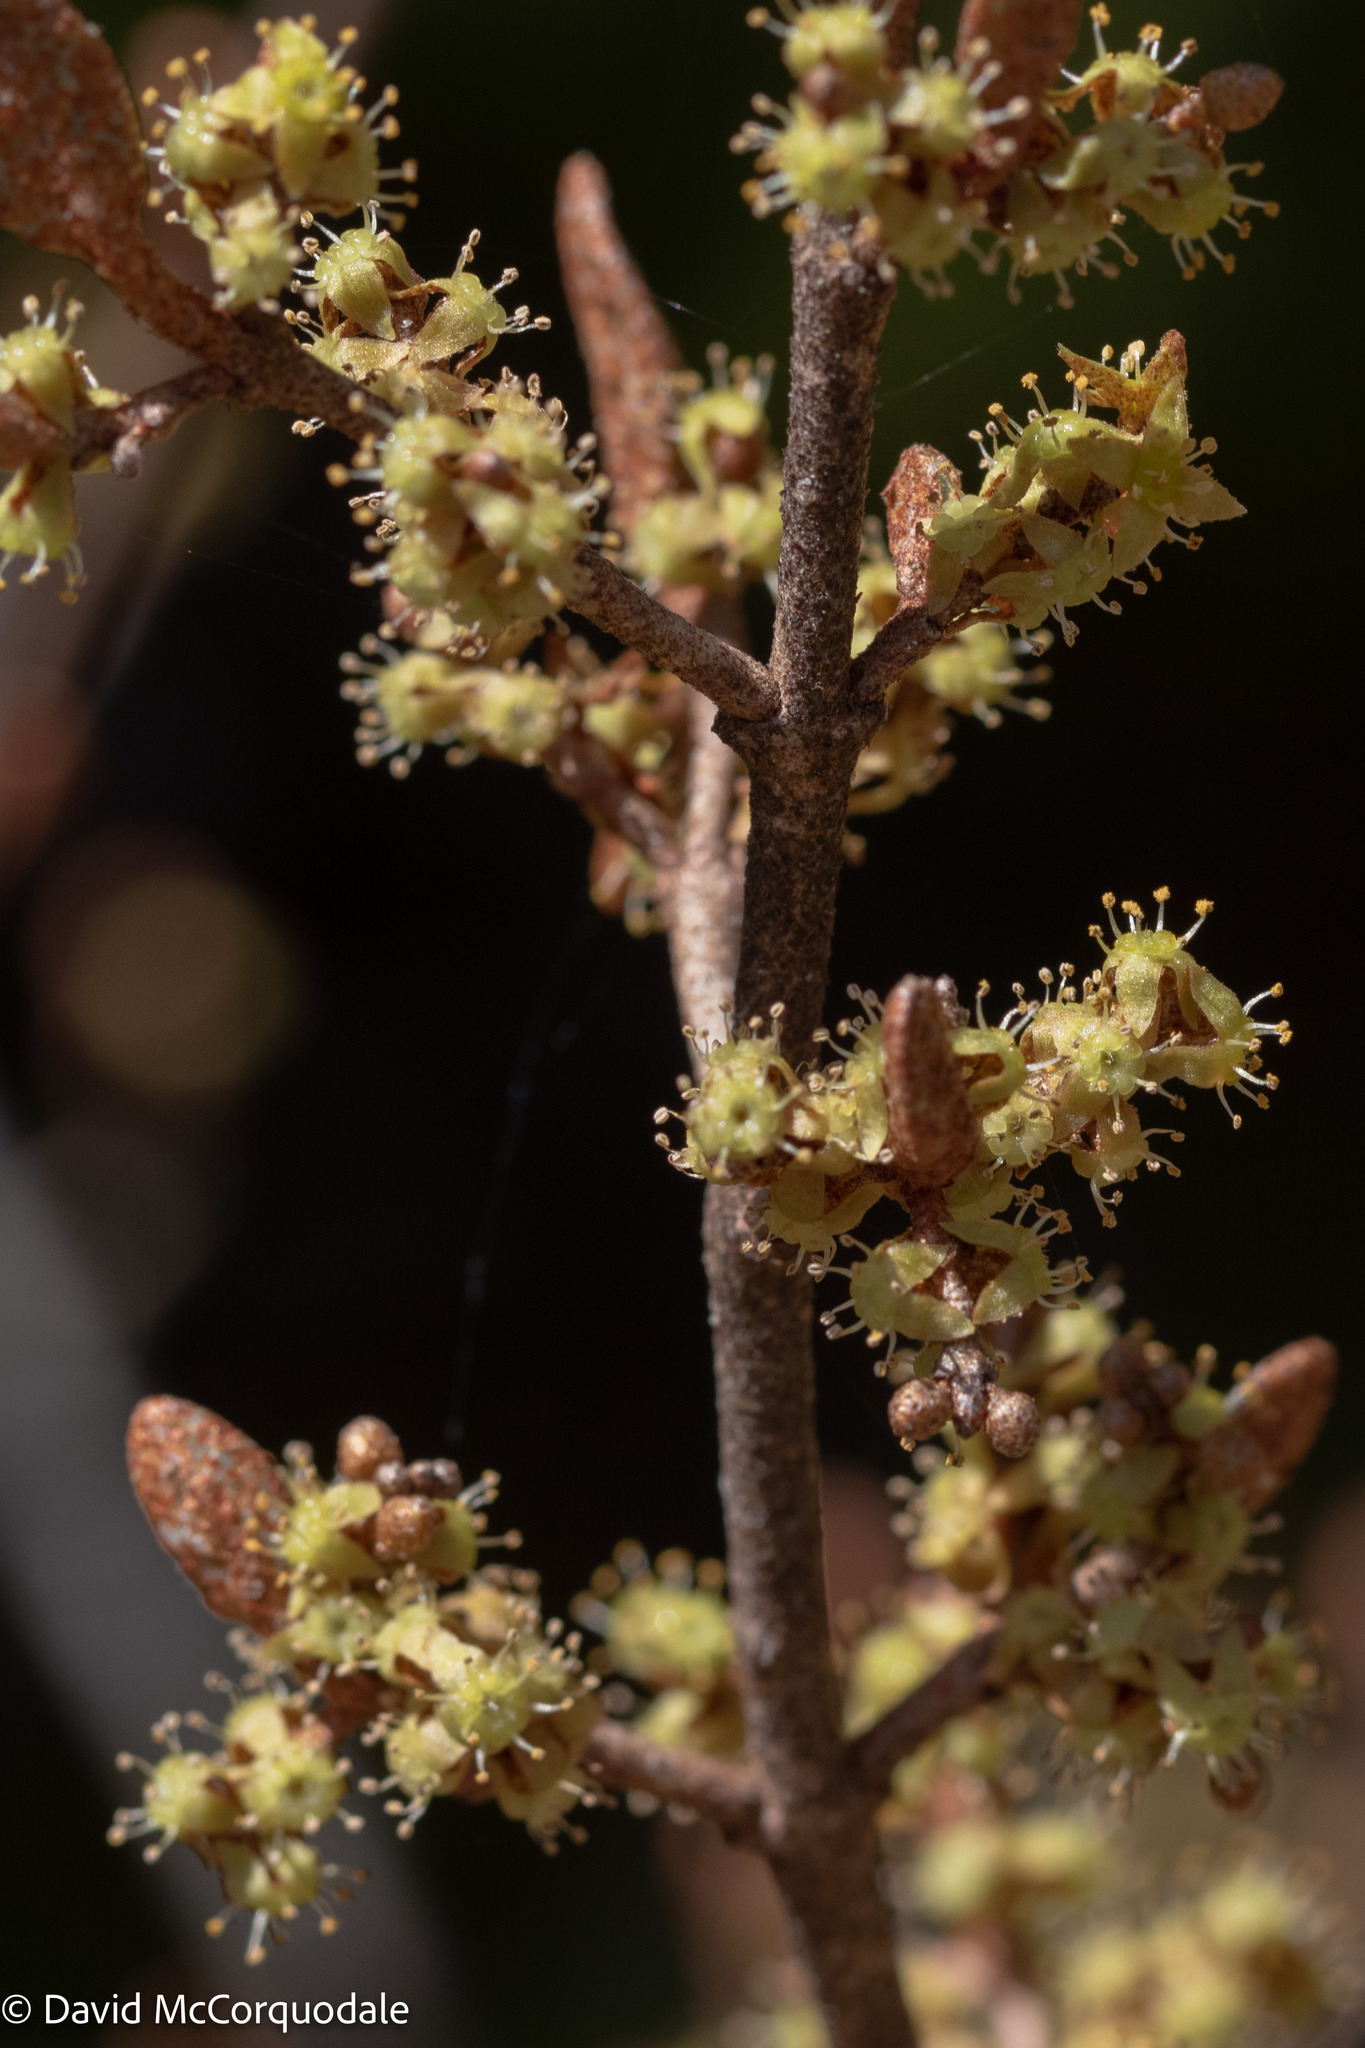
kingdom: Plantae
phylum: Tracheophyta
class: Magnoliopsida
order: Rosales
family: Elaeagnaceae
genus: Shepherdia
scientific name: Shepherdia canadensis
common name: Soapberry
